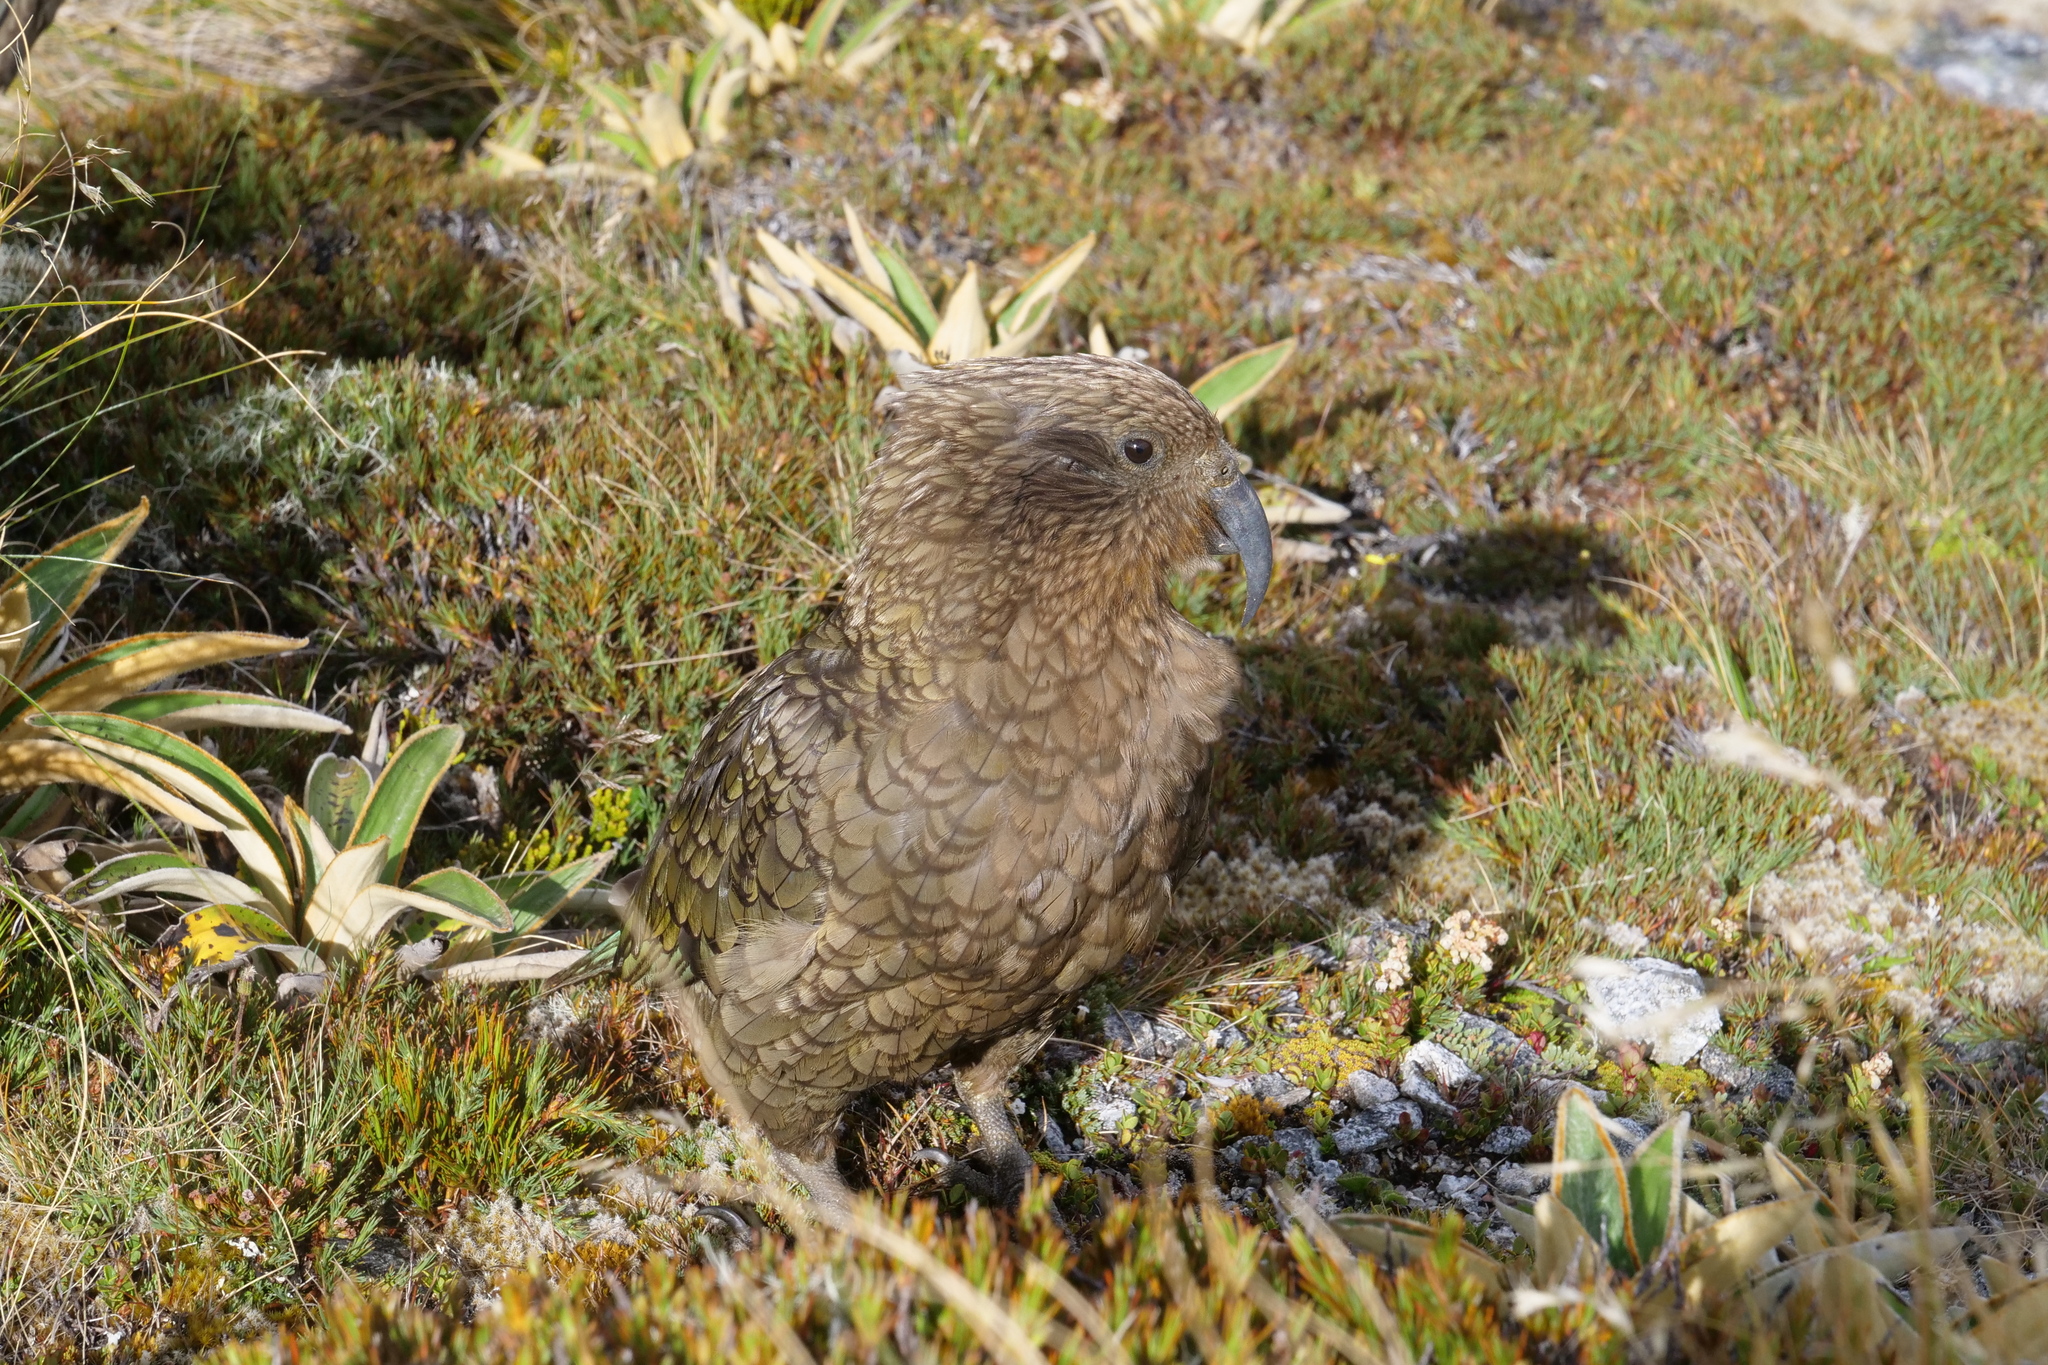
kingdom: Animalia
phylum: Chordata
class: Aves
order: Psittaciformes
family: Psittacidae
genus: Nestor
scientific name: Nestor notabilis
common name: Kea
